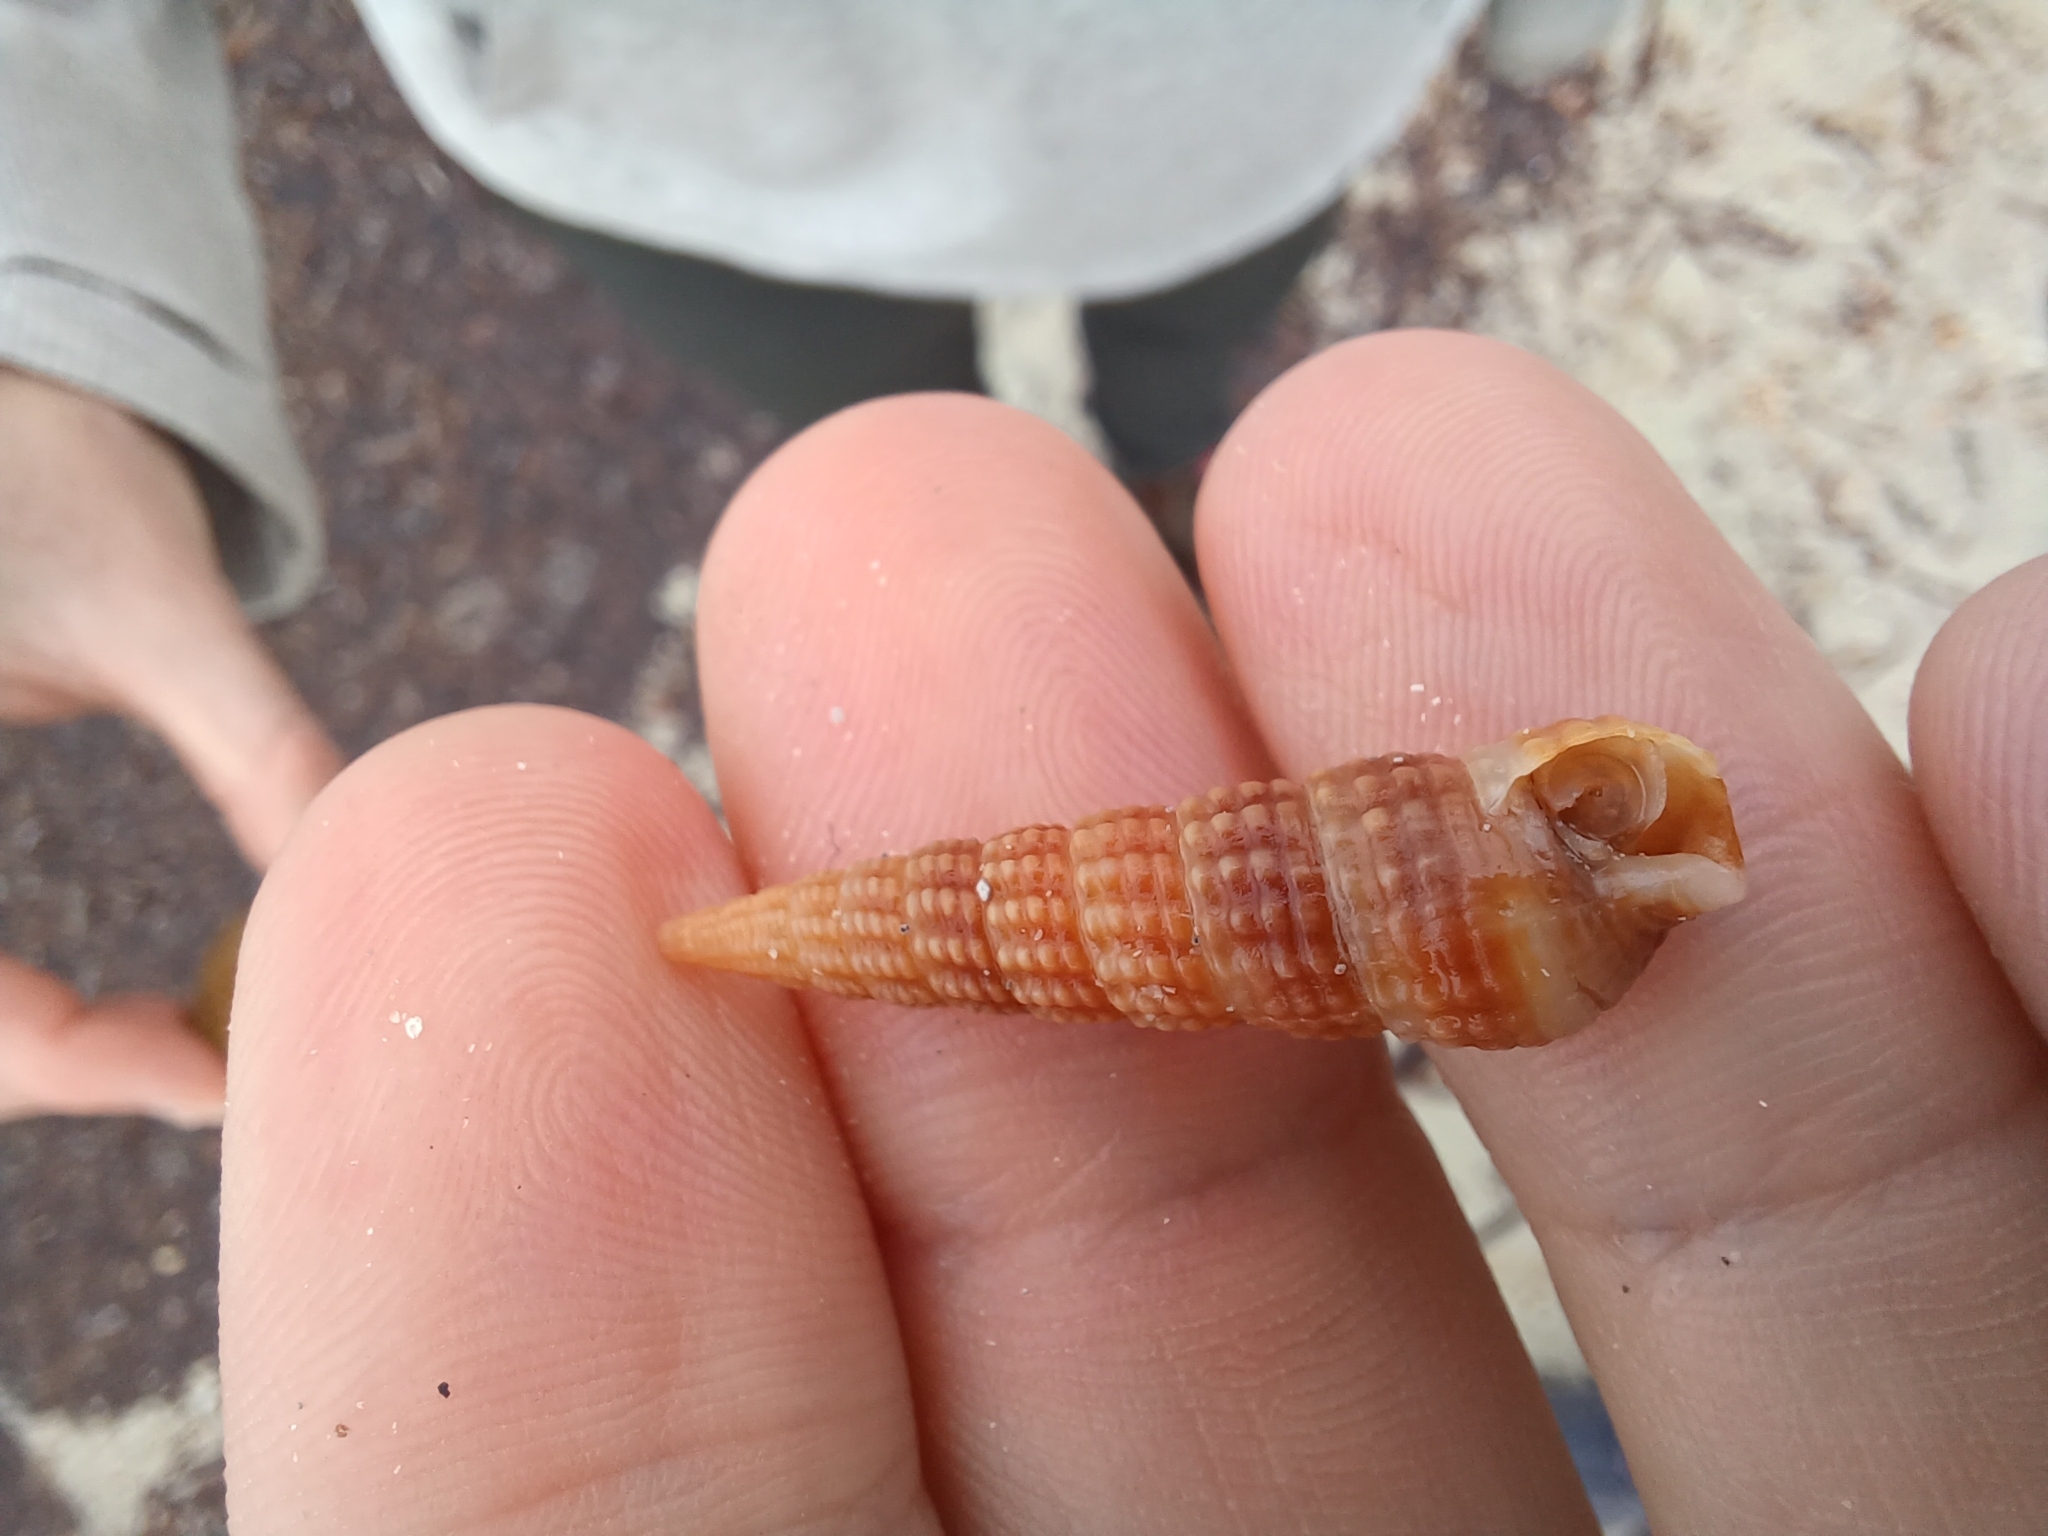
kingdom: Animalia
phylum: Mollusca
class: Gastropoda
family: Batillariidae
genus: Zeacumantus
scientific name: Zeacumantus diemenensis
